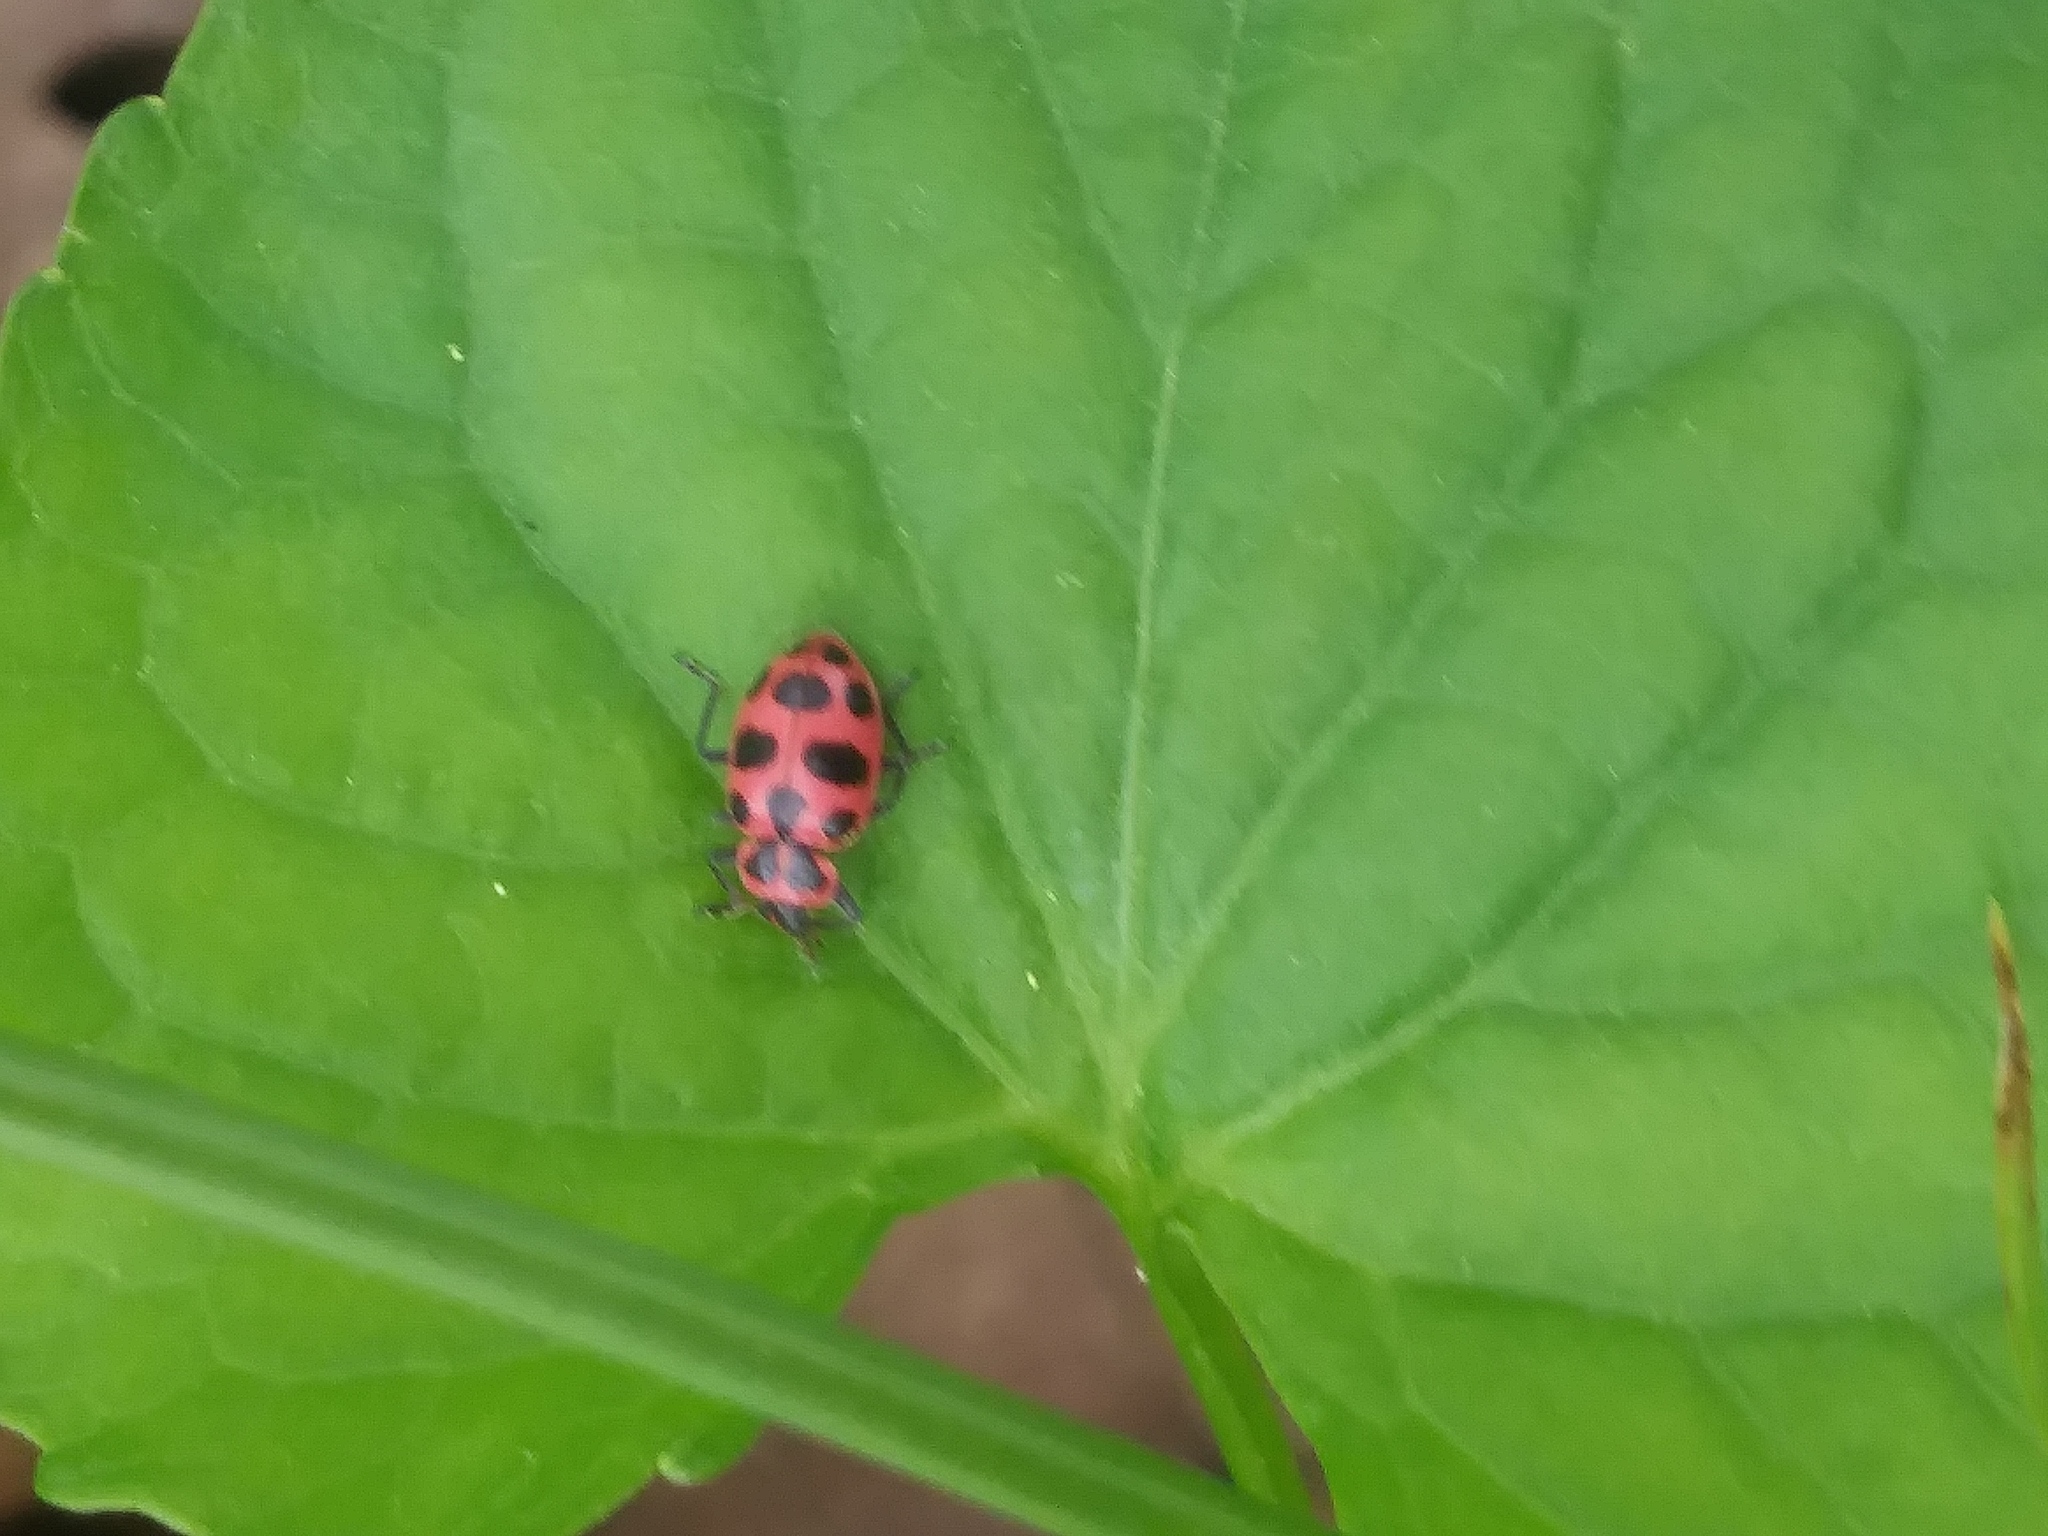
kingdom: Animalia
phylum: Arthropoda
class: Insecta
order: Coleoptera
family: Coccinellidae
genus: Coleomegilla
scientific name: Coleomegilla maculata
